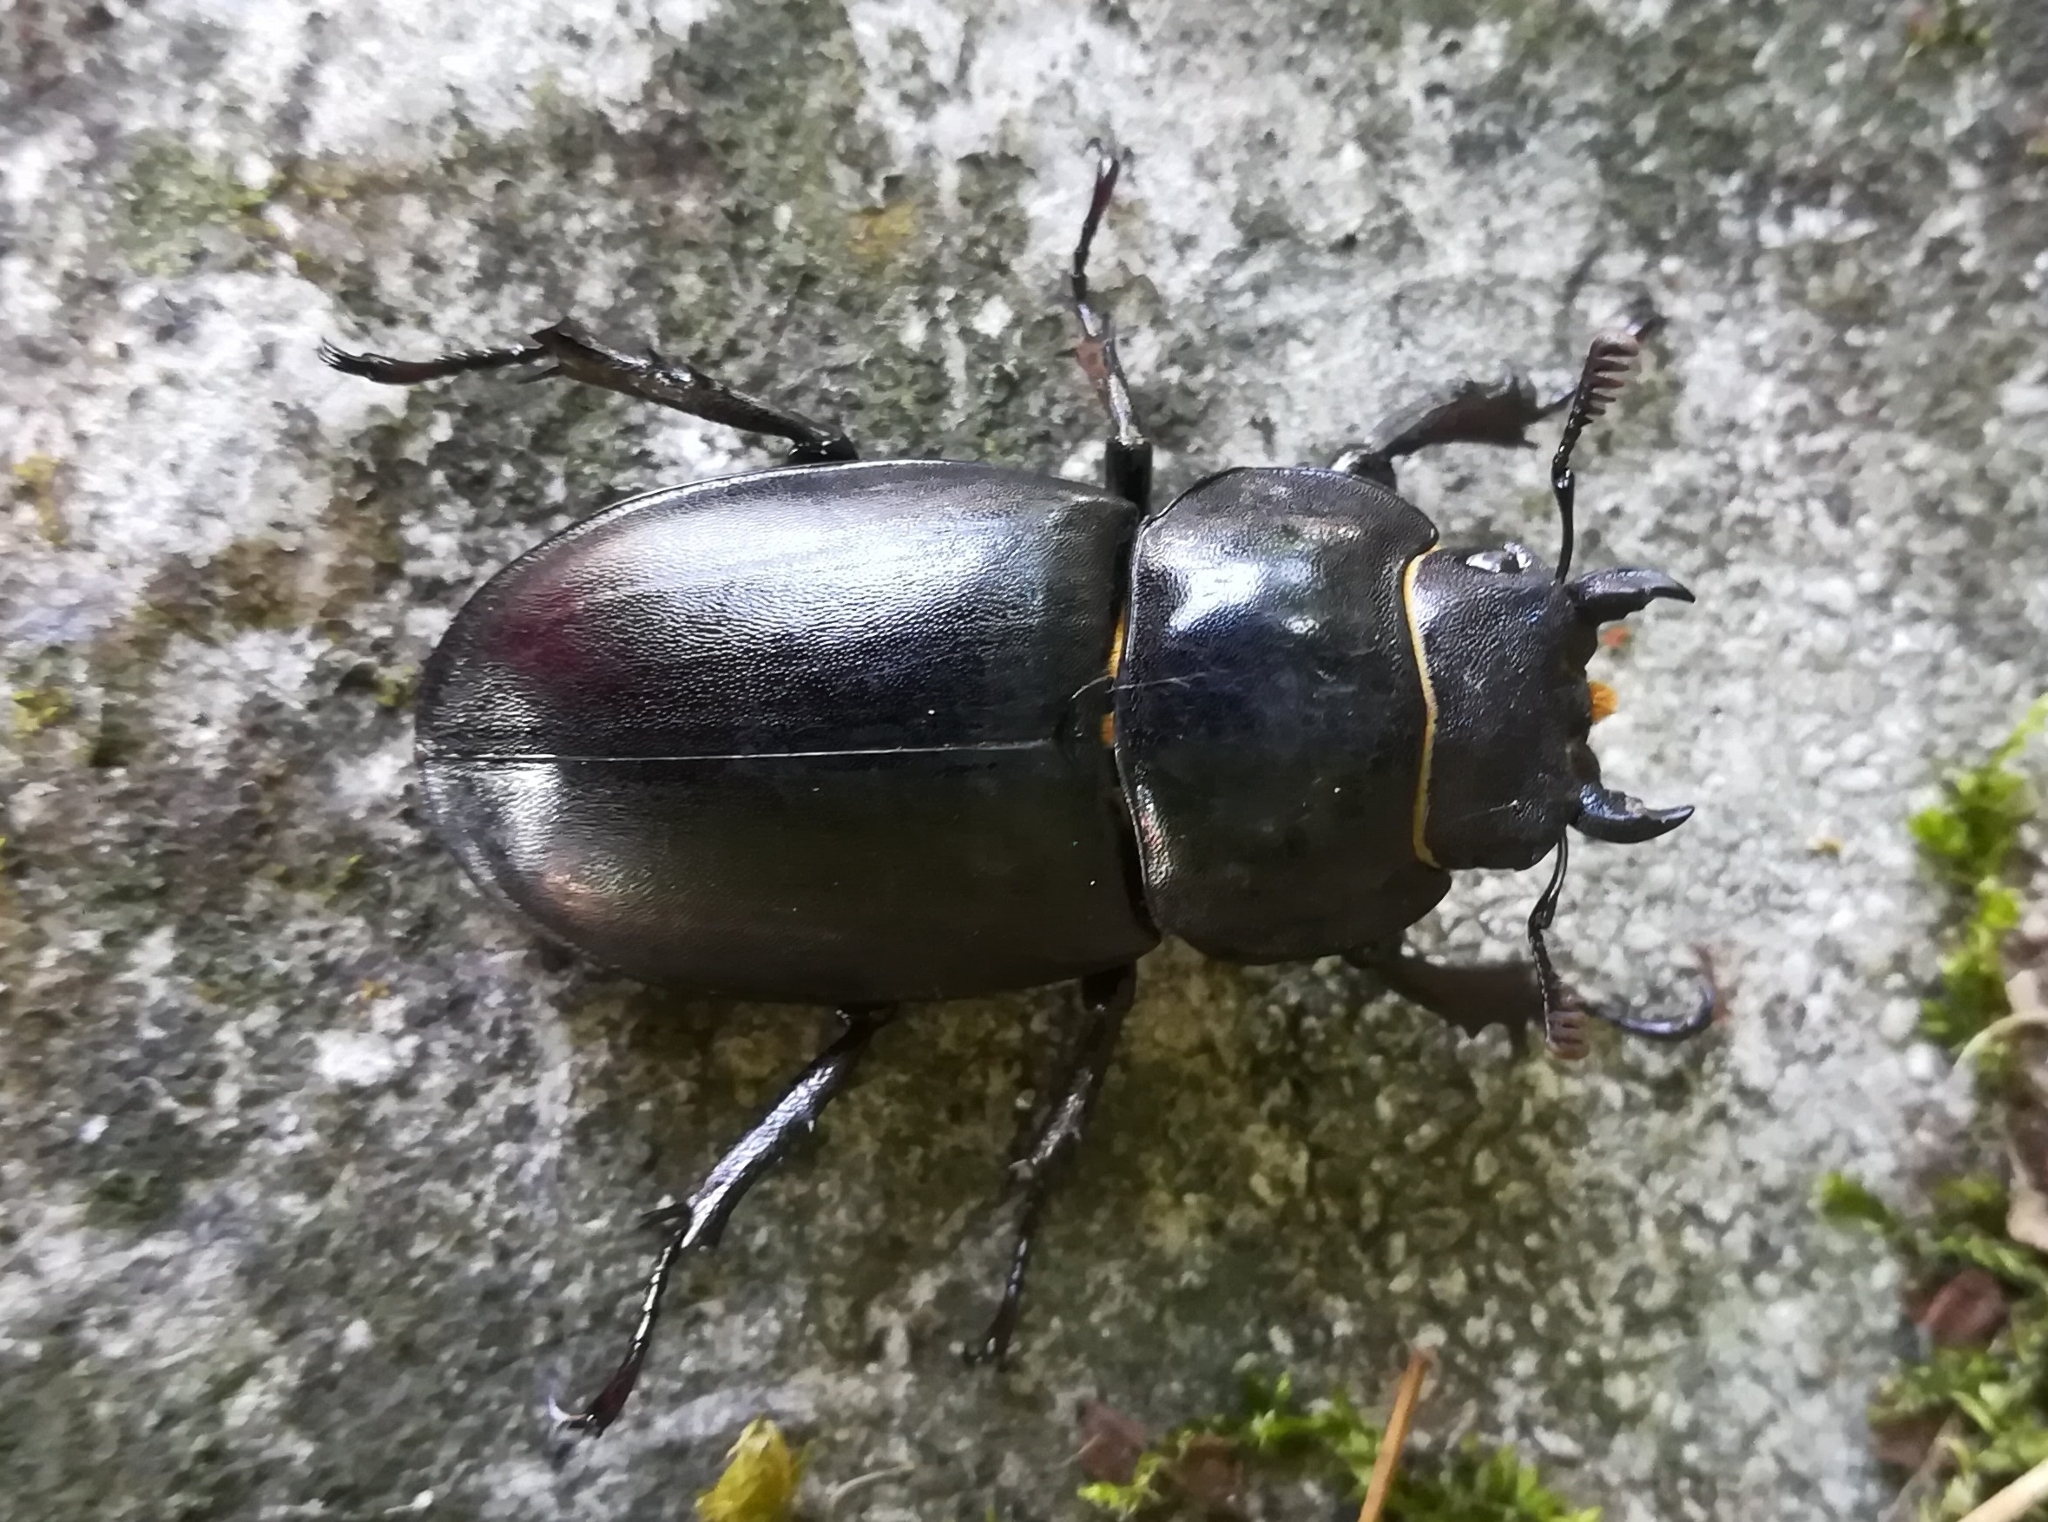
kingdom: Animalia
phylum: Arthropoda
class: Insecta
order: Coleoptera
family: Lucanidae
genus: Lucanus
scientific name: Lucanus tetraodon
